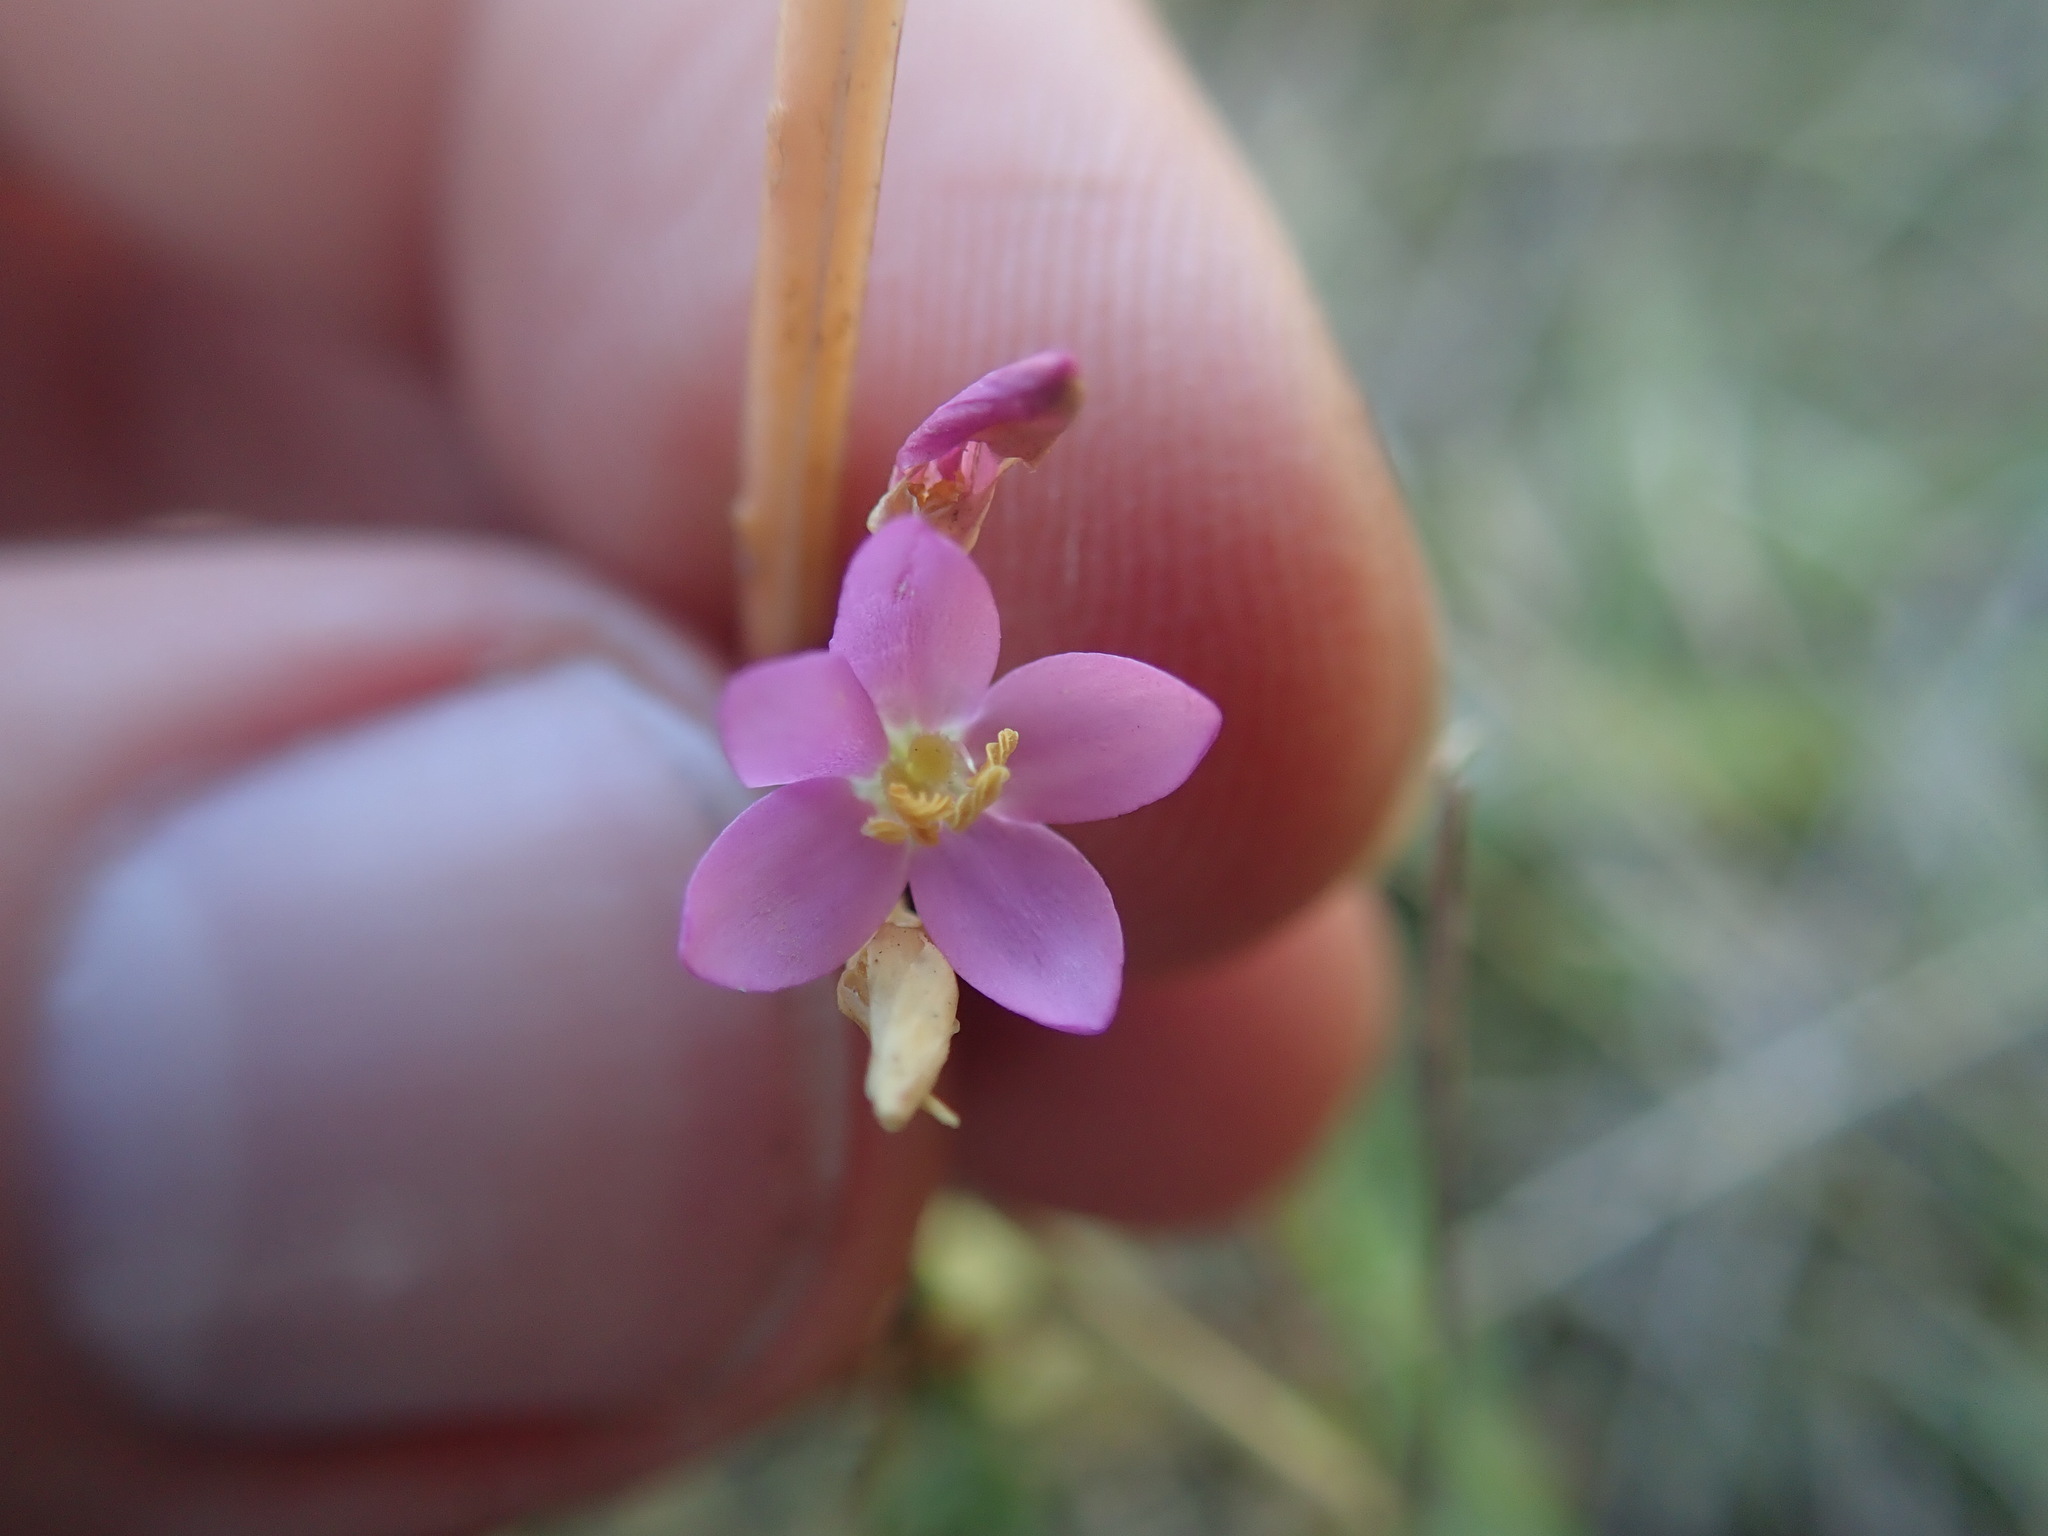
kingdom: Plantae
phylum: Tracheophyta
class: Magnoliopsida
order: Gentianales
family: Gentianaceae
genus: Centaurium
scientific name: Centaurium erythraea
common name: Common centaury
